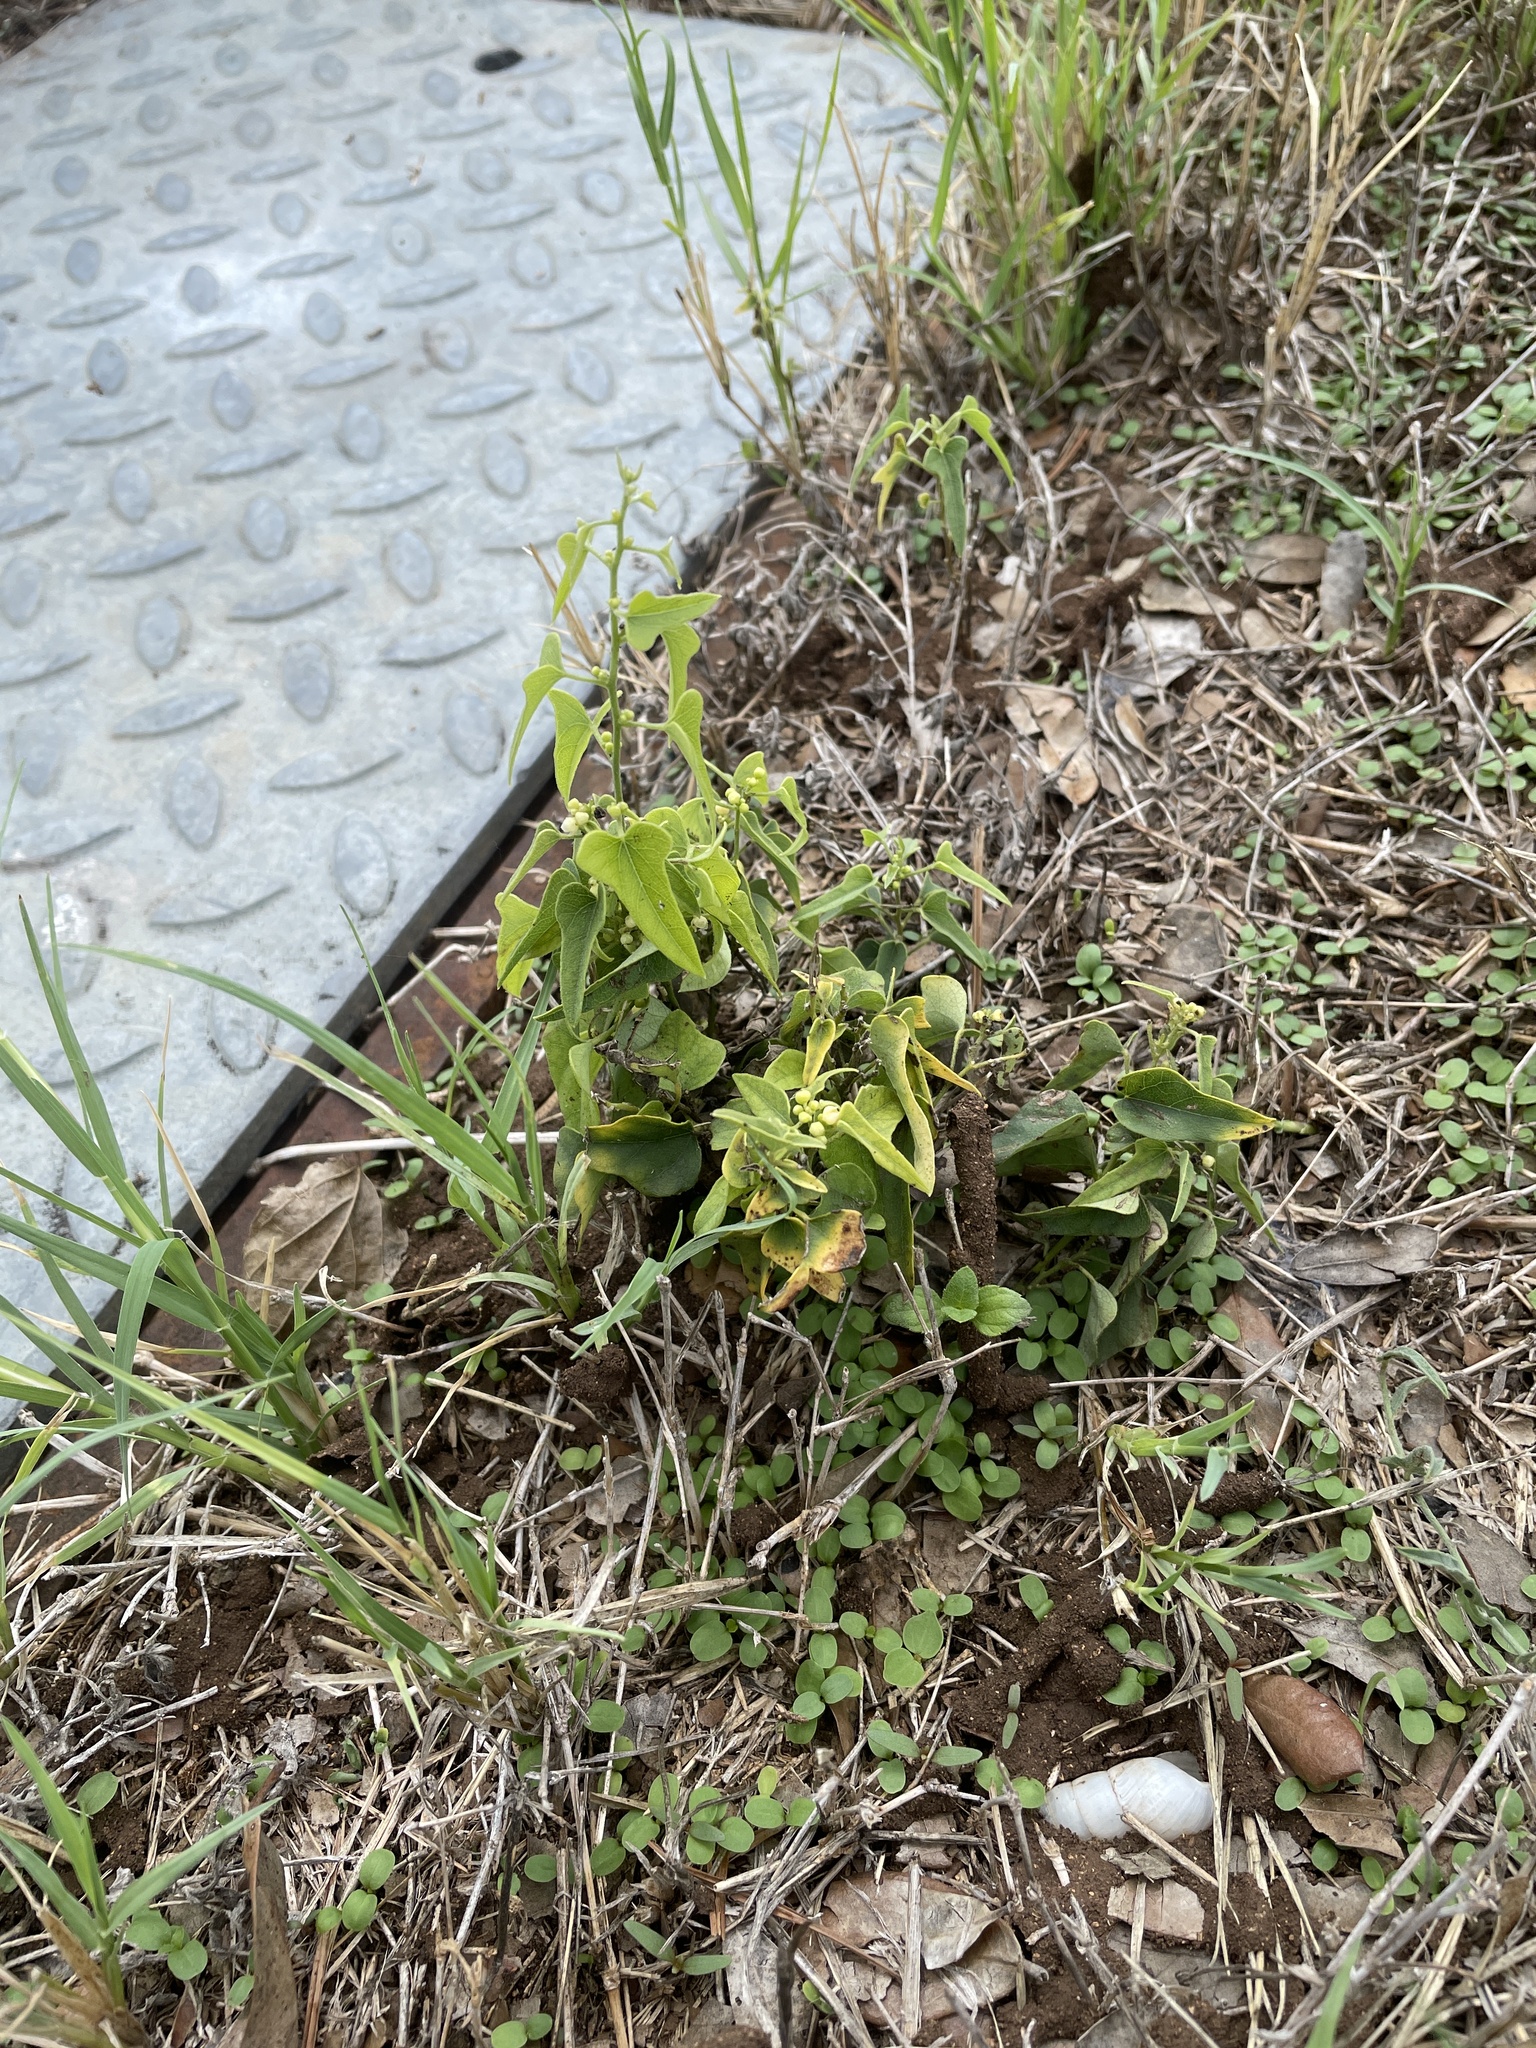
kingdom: Plantae
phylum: Tracheophyta
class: Magnoliopsida
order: Ranunculales
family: Menispermaceae
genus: Cocculus
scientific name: Cocculus carolinus
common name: Carolina moonseed
